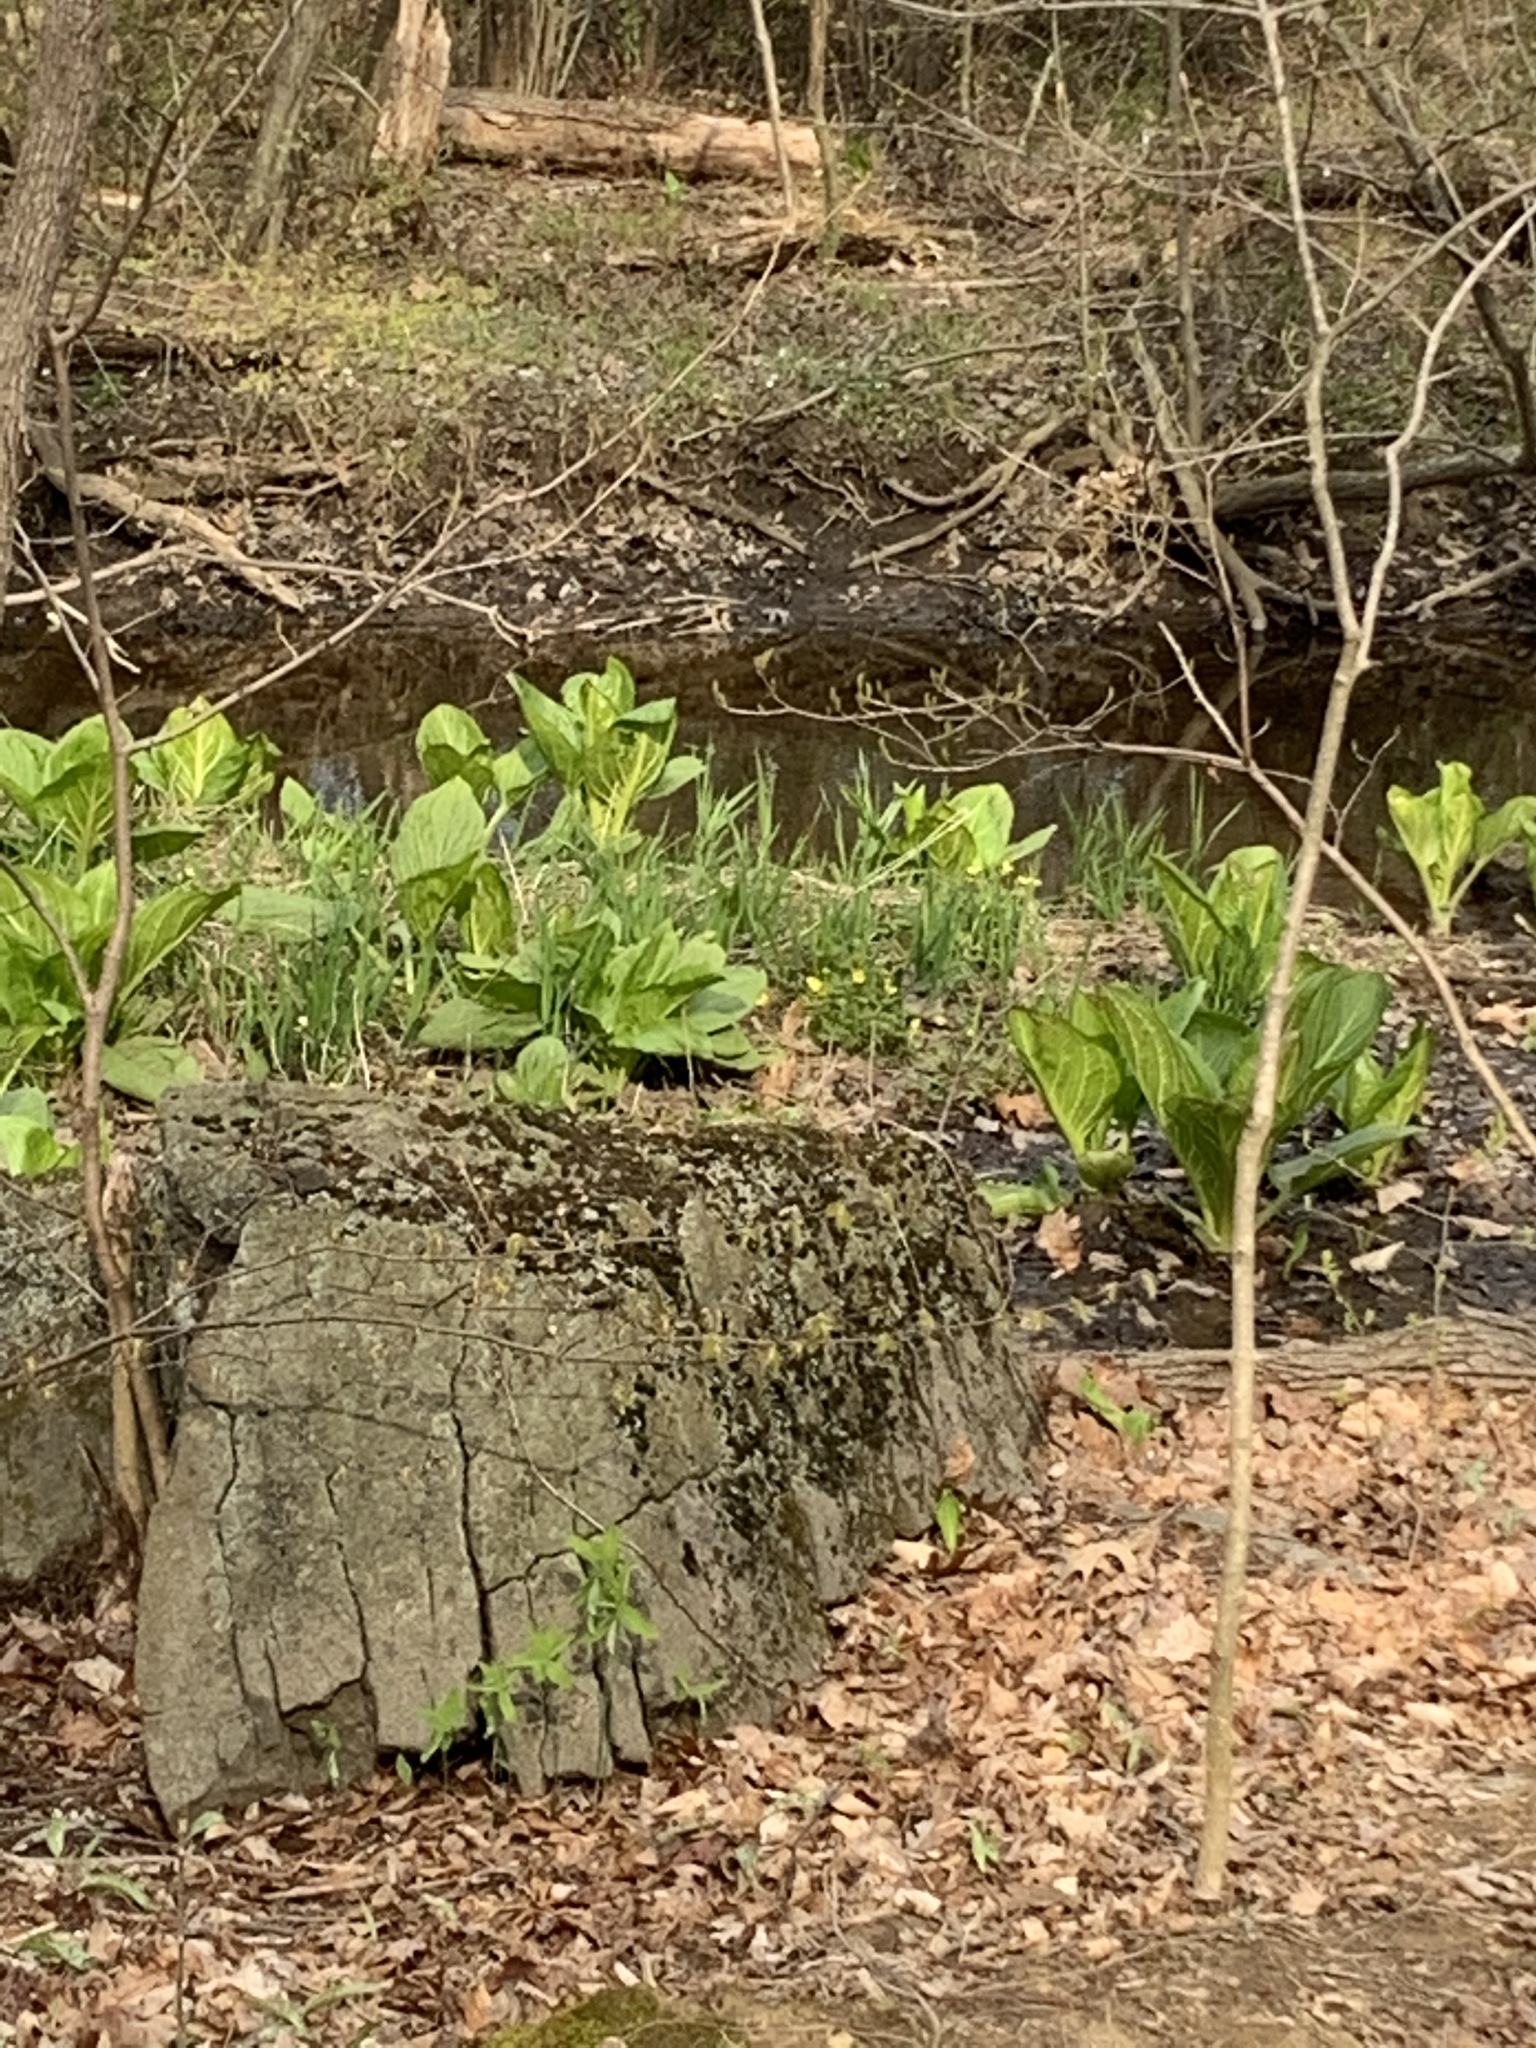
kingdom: Plantae
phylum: Tracheophyta
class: Liliopsida
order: Alismatales
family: Araceae
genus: Symplocarpus
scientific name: Symplocarpus foetidus
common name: Eastern skunk cabbage
